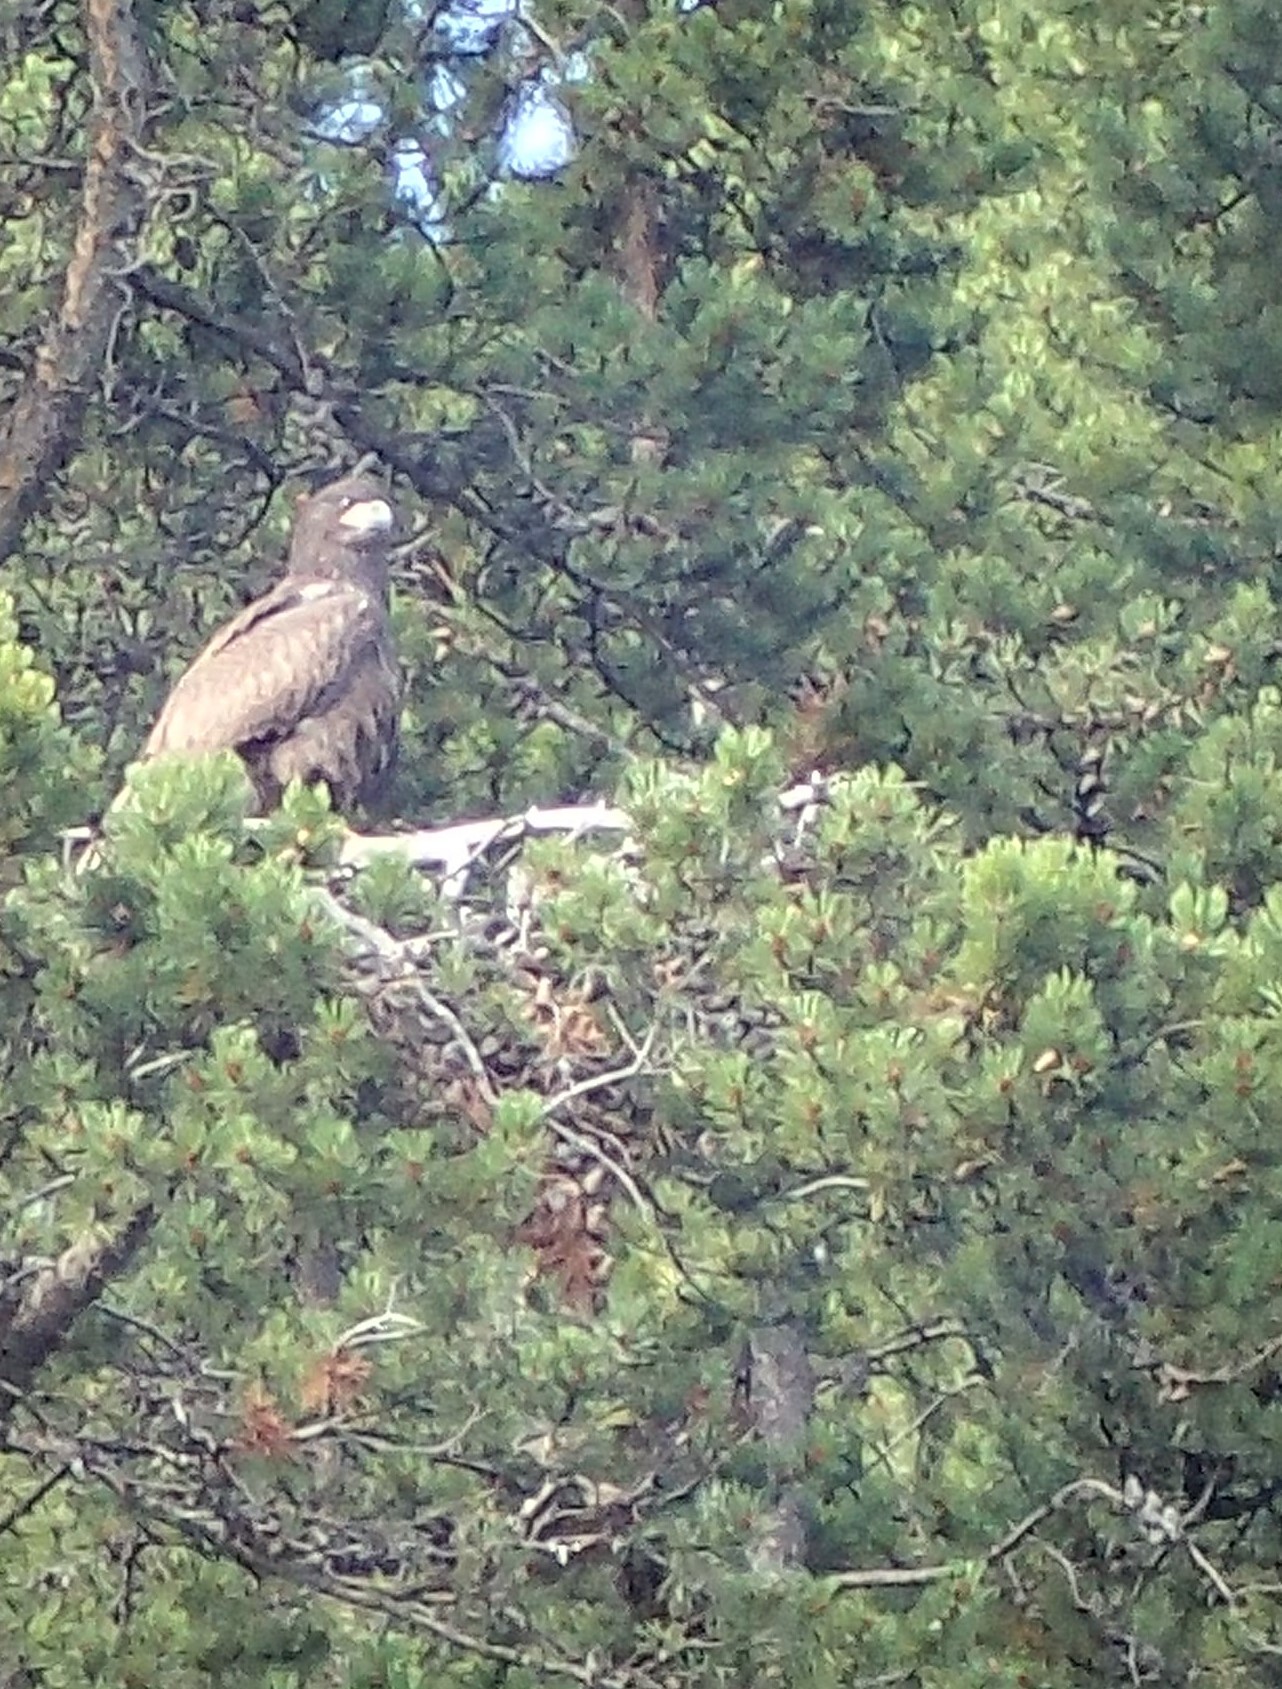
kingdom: Animalia
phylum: Chordata
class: Aves
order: Accipitriformes
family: Accipitridae
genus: Haliaeetus
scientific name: Haliaeetus leucocephalus
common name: Bald eagle
